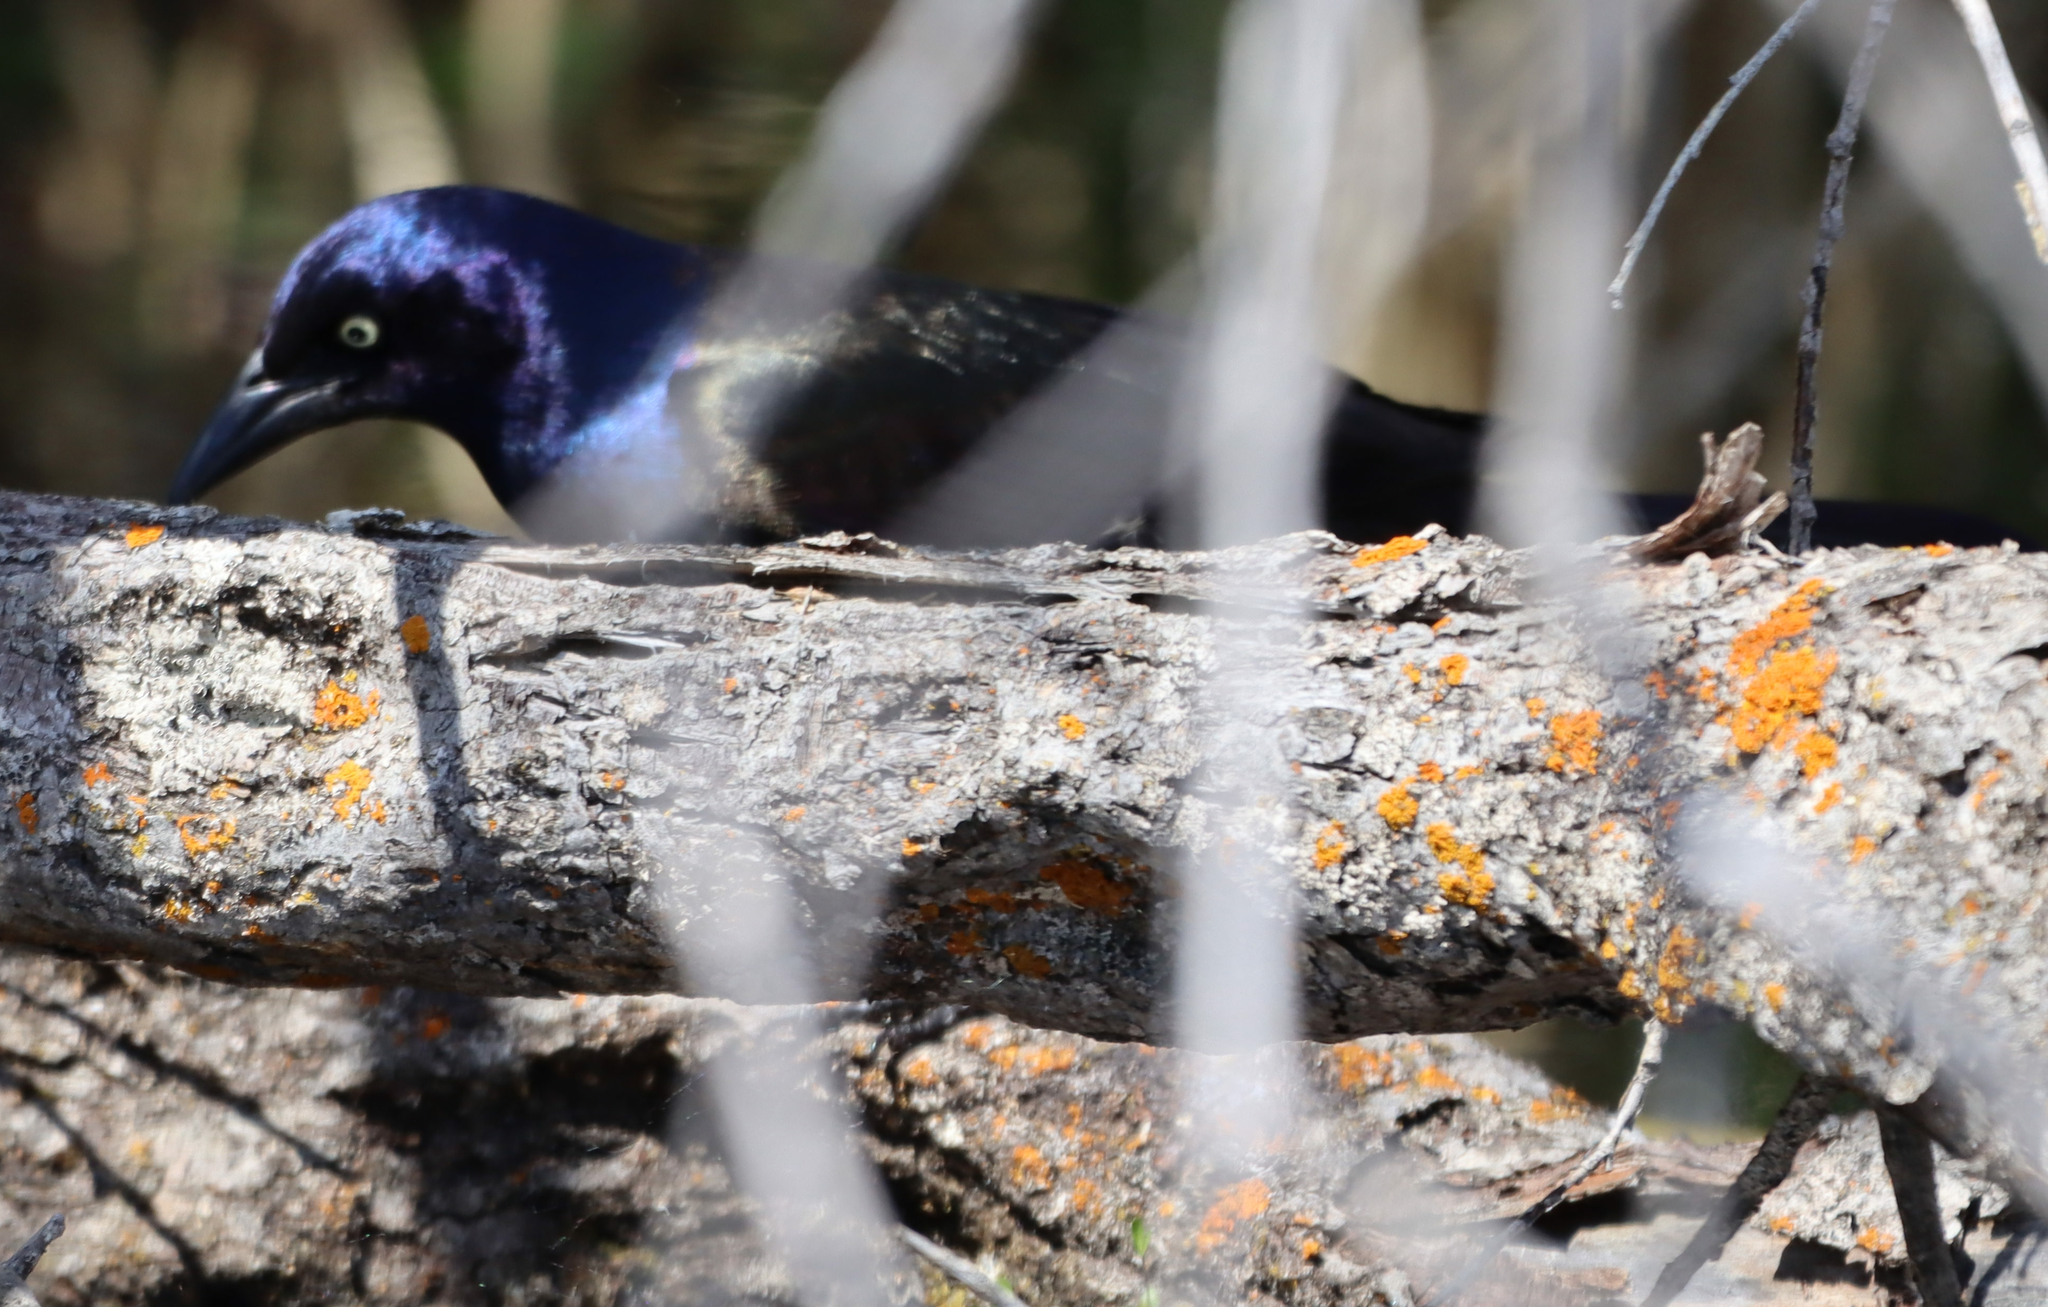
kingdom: Animalia
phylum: Chordata
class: Aves
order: Passeriformes
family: Icteridae
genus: Quiscalus
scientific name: Quiscalus quiscula
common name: Common grackle
